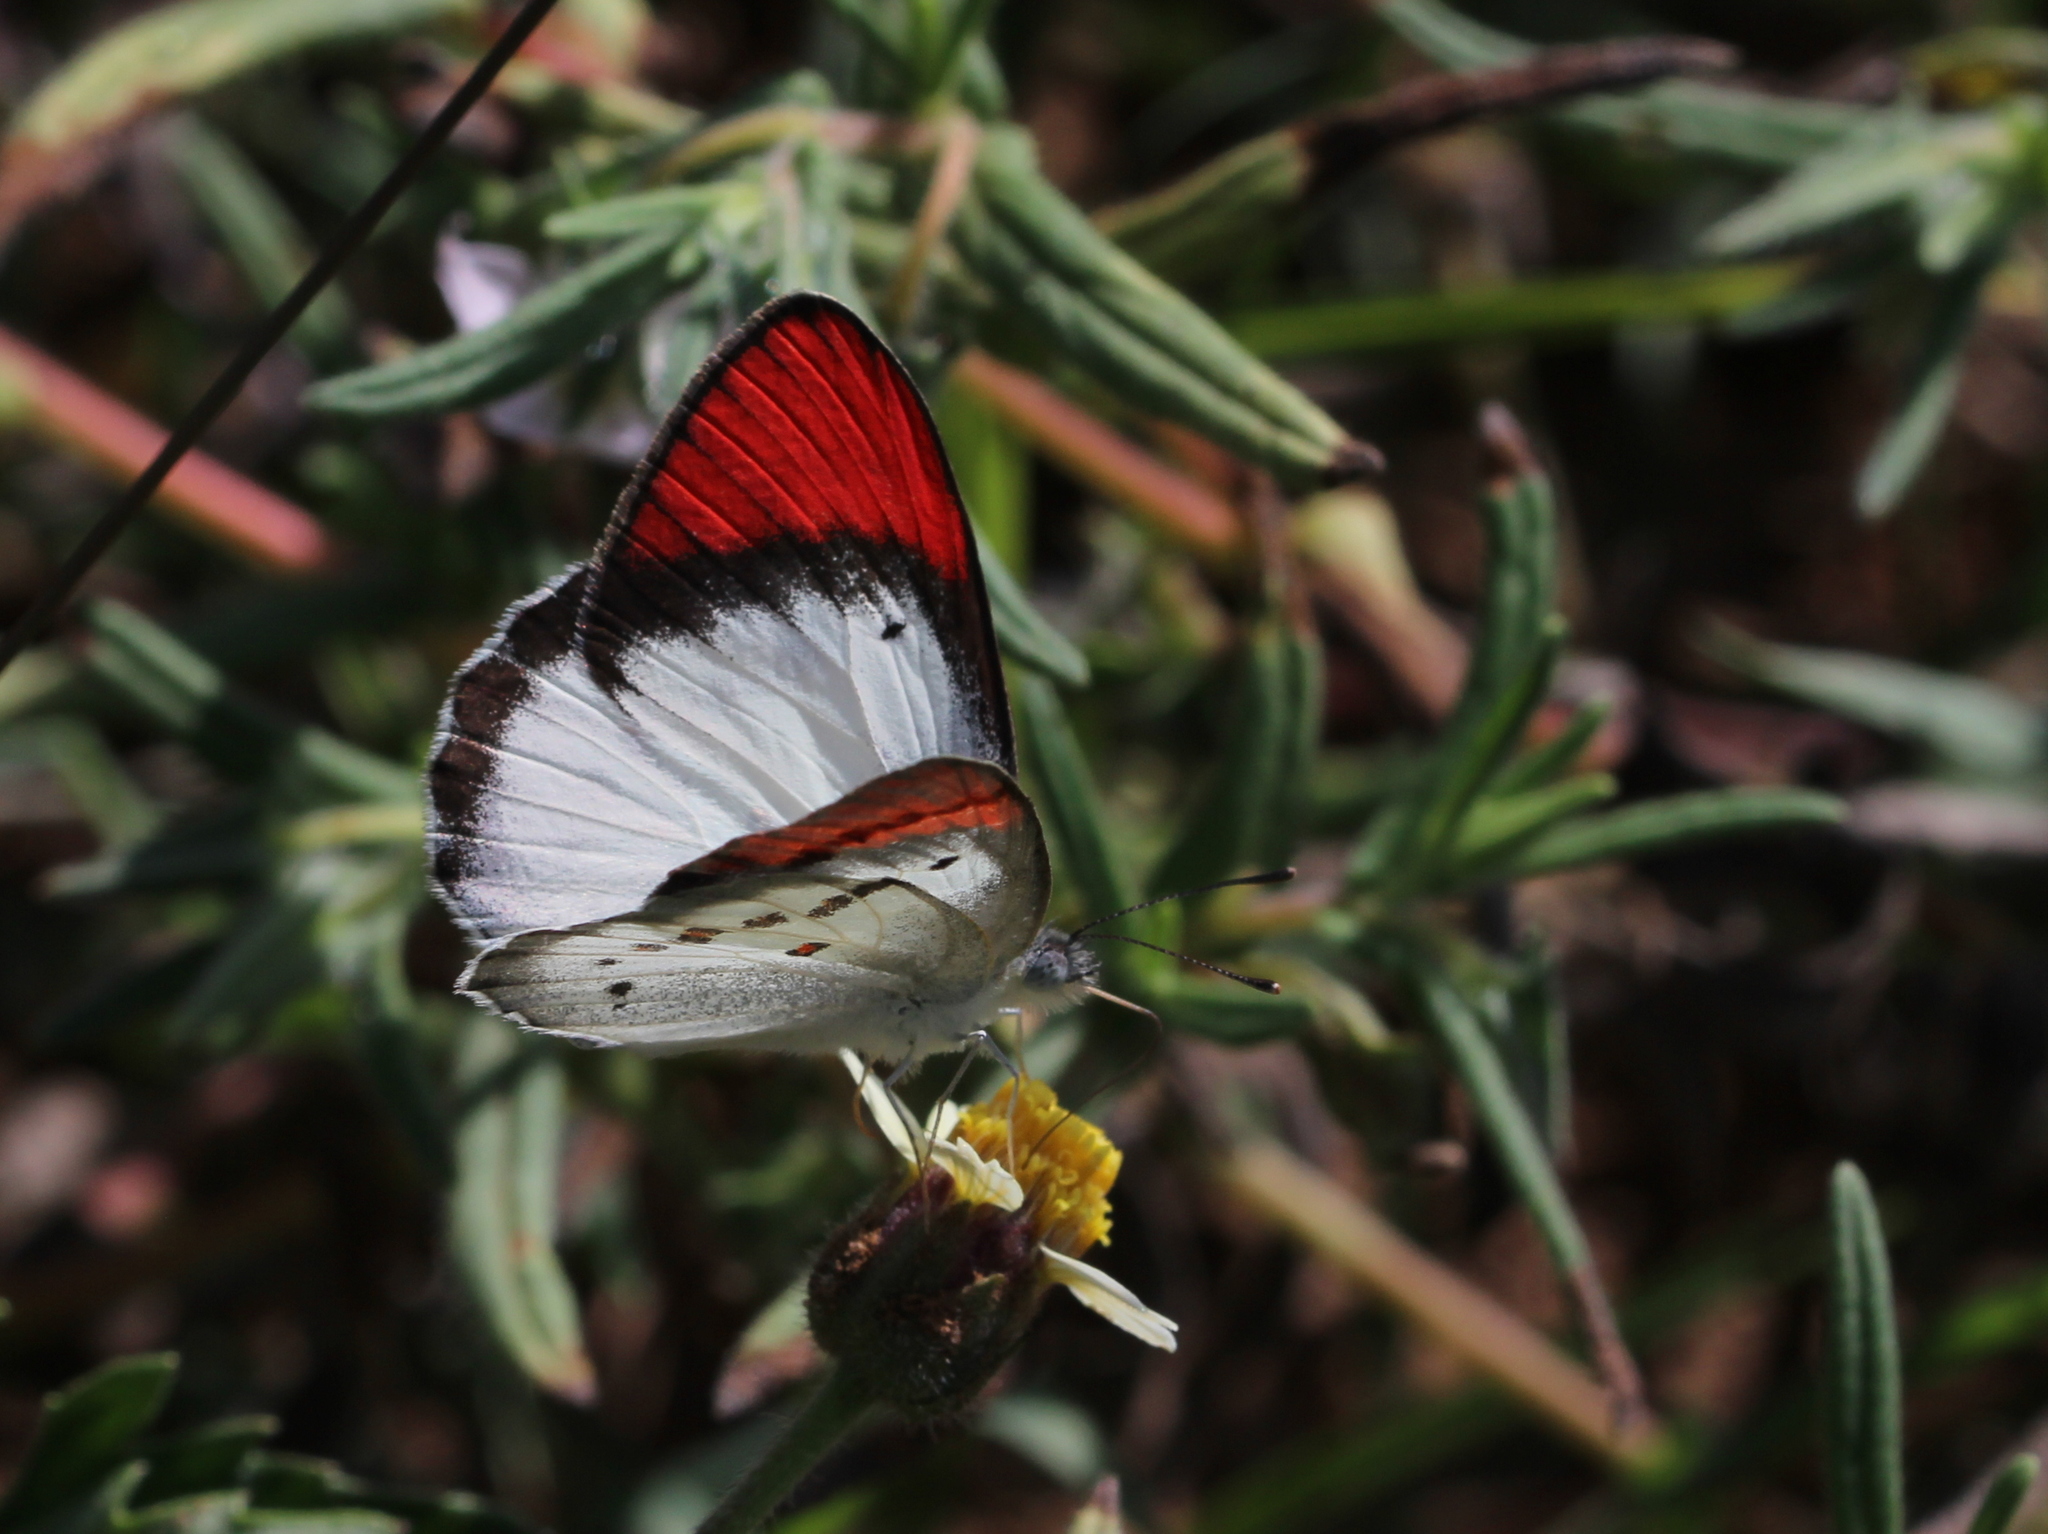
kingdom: Animalia
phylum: Arthropoda
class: Insecta
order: Lepidoptera
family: Pieridae
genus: Colotis
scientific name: Colotis danae
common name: Crimson tip
